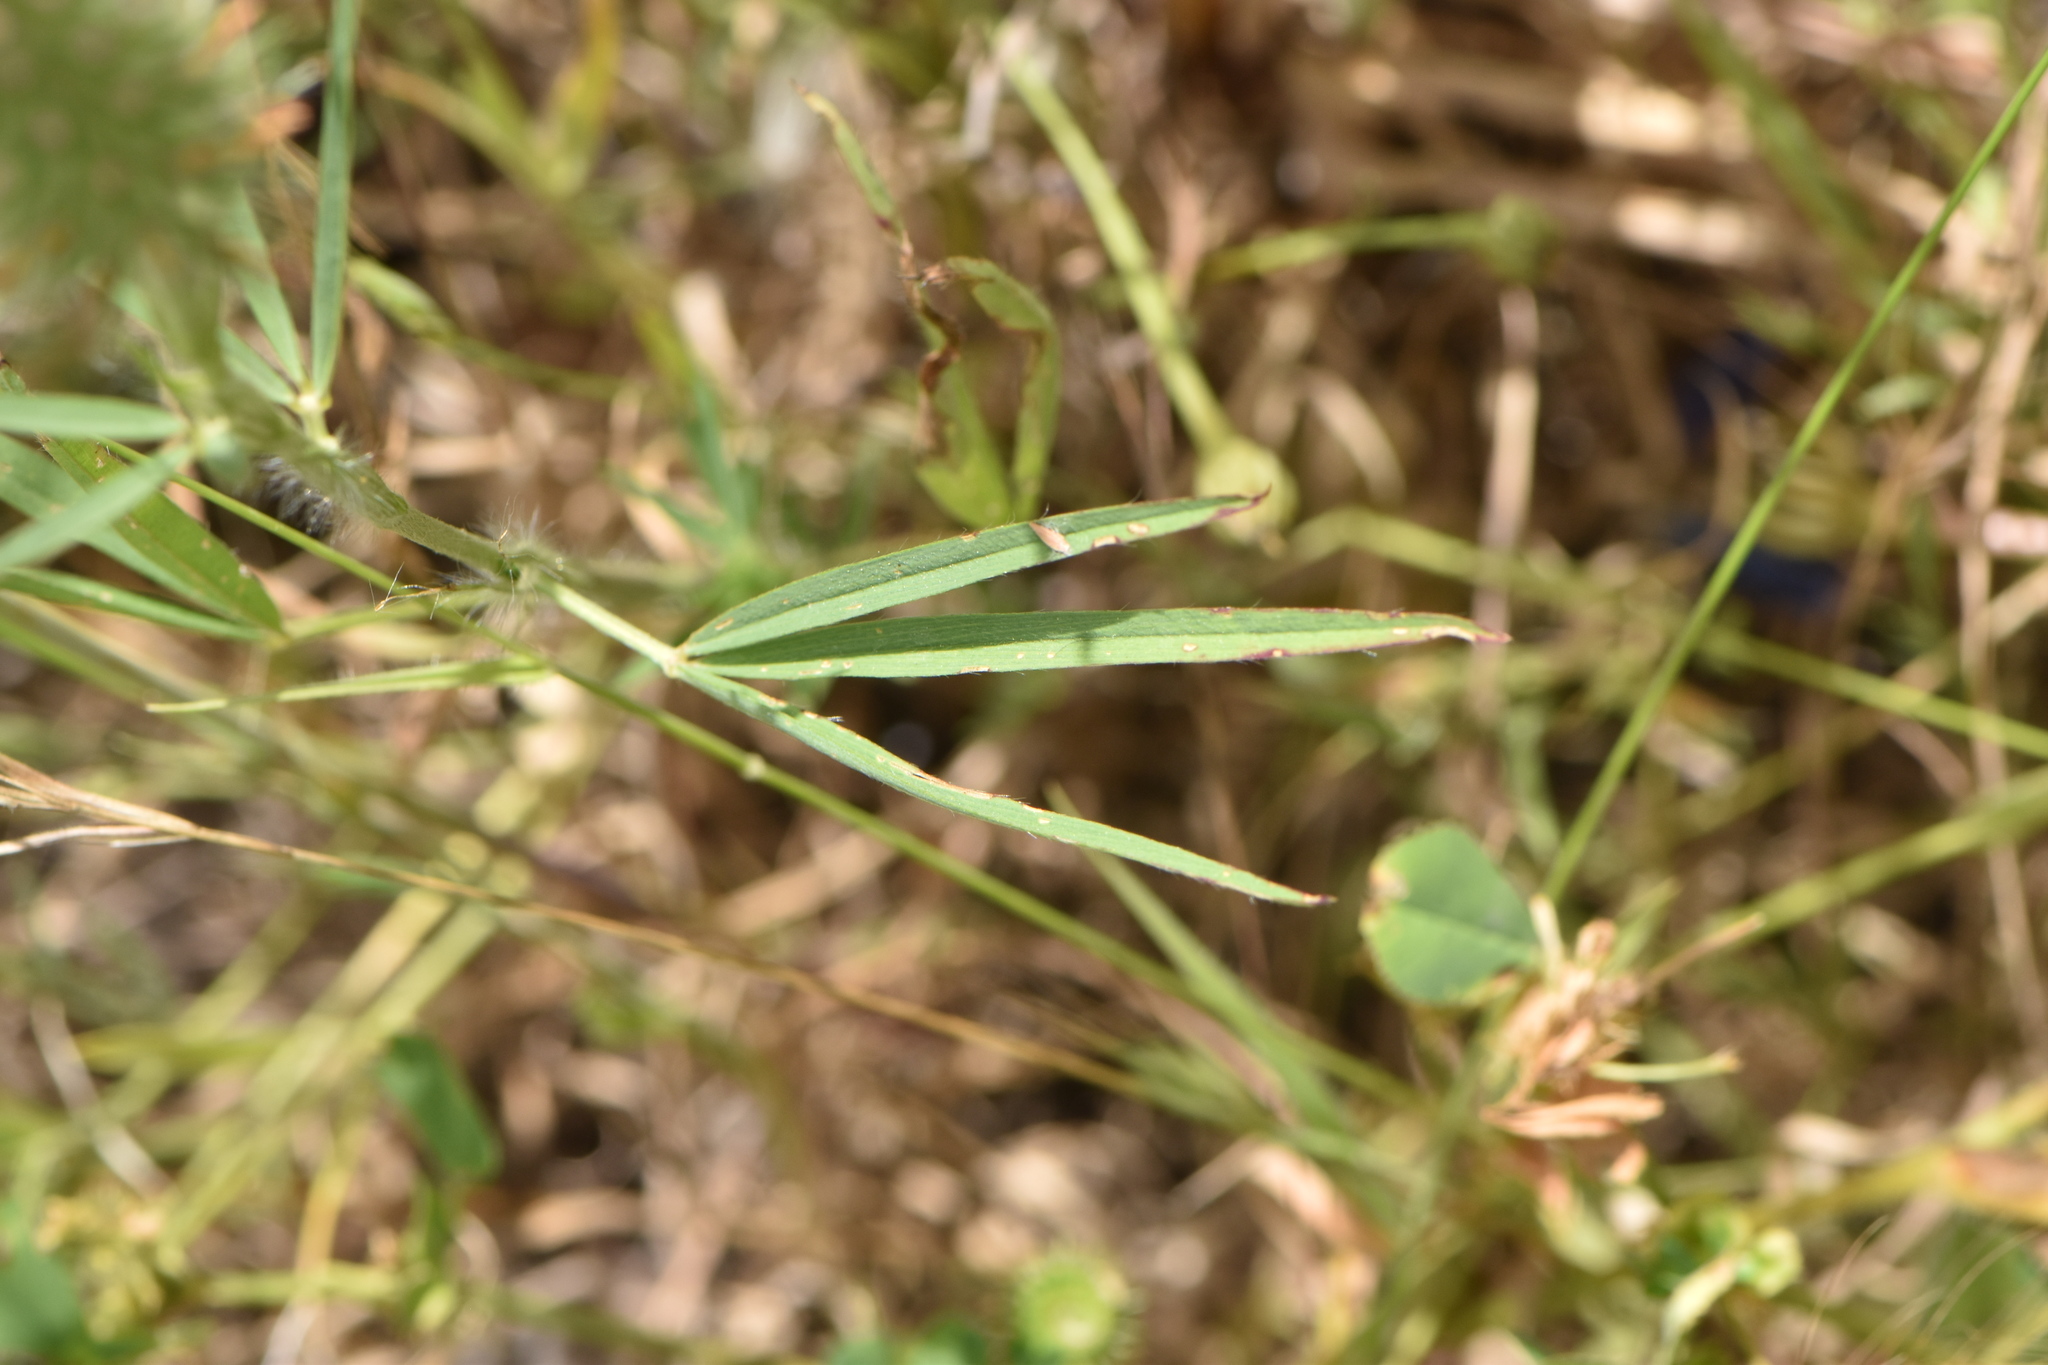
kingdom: Plantae
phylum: Tracheophyta
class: Magnoliopsida
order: Fabales
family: Fabaceae
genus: Trifolium
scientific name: Trifolium angustifolium
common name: Narrow clover
